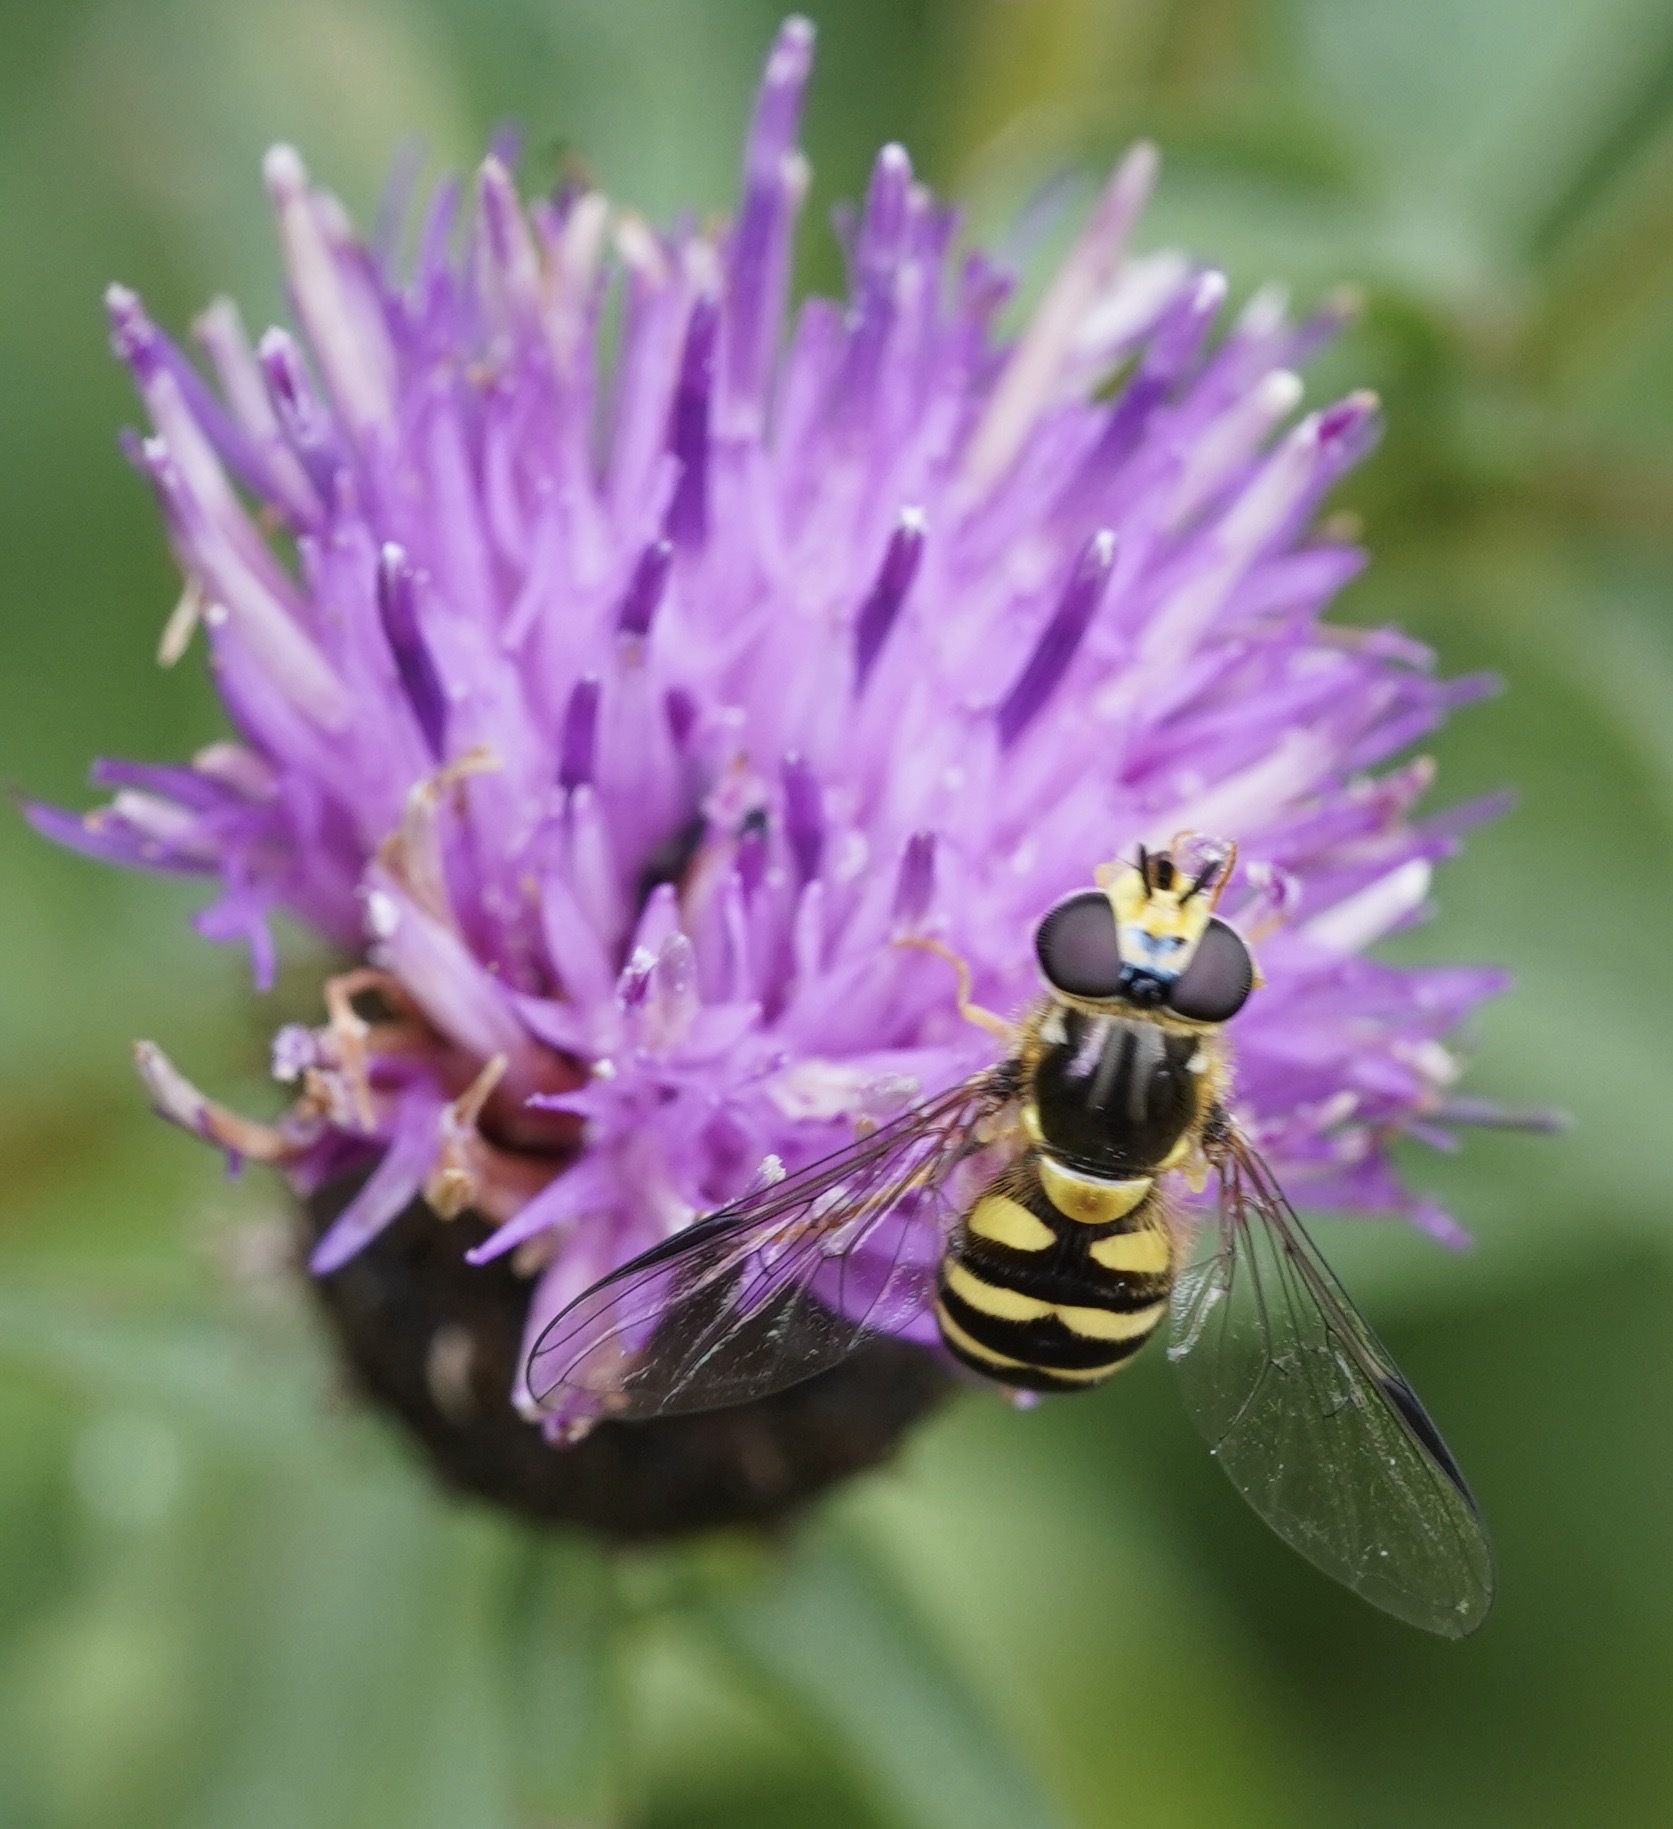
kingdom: Animalia
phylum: Arthropoda
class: Insecta
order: Diptera
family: Syrphidae
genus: Dasysyrphus
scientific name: Dasysyrphus albostriatus
